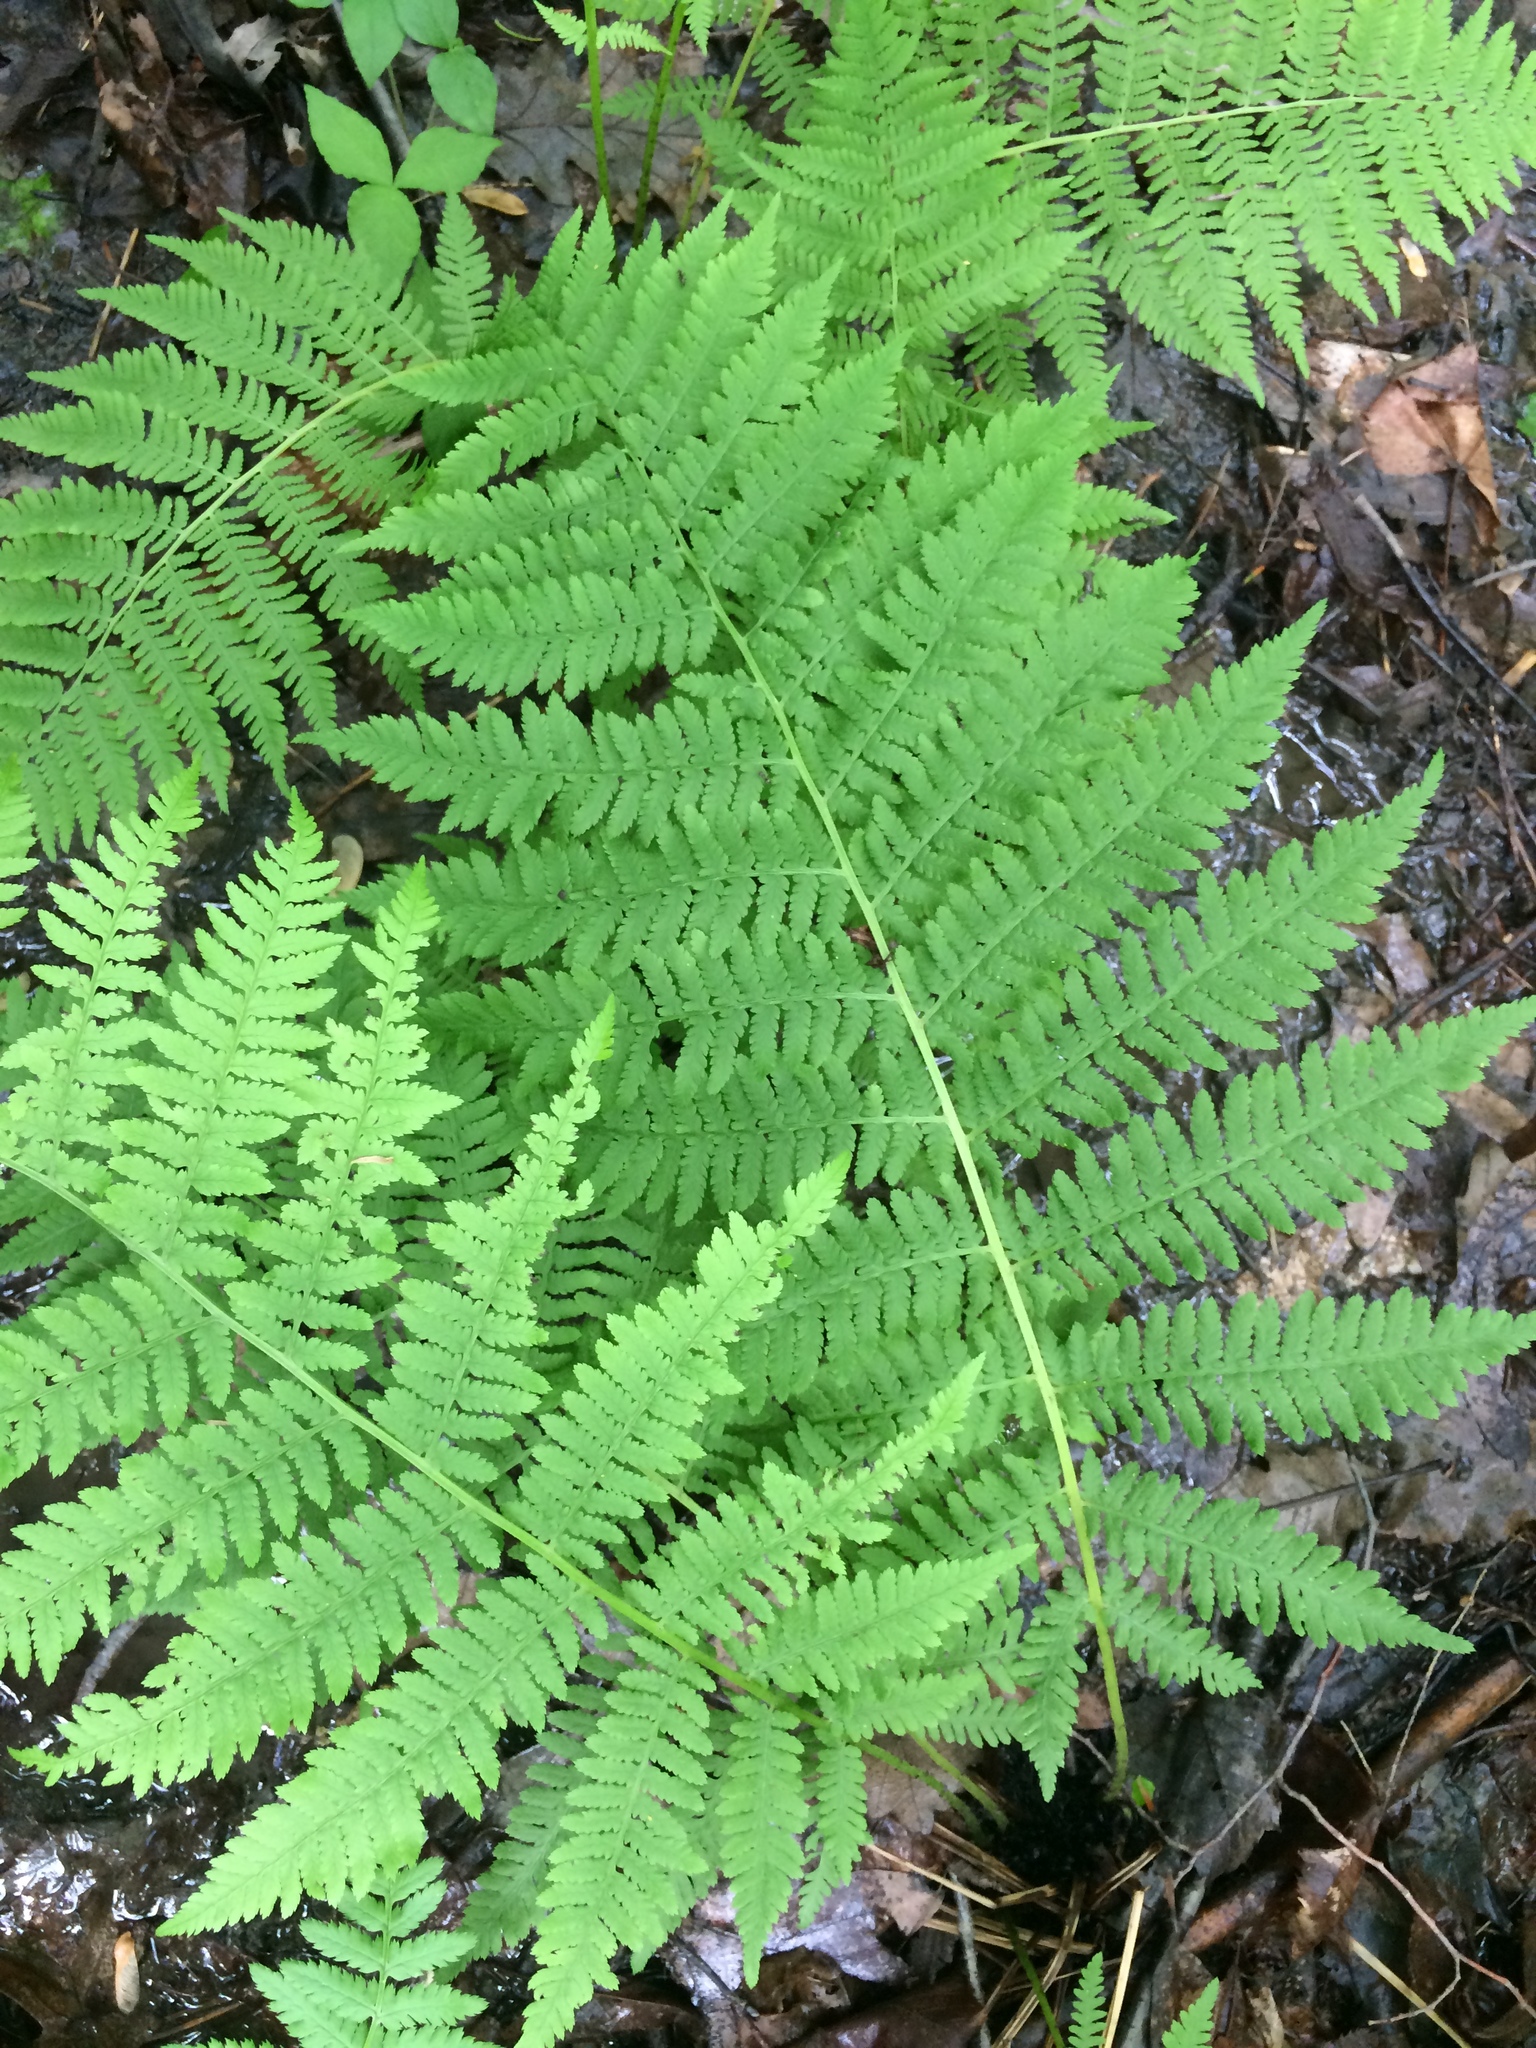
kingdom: Plantae
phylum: Tracheophyta
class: Polypodiopsida
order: Polypodiales
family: Athyriaceae
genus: Athyrium
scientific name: Athyrium angustum
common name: Northern lady fern
